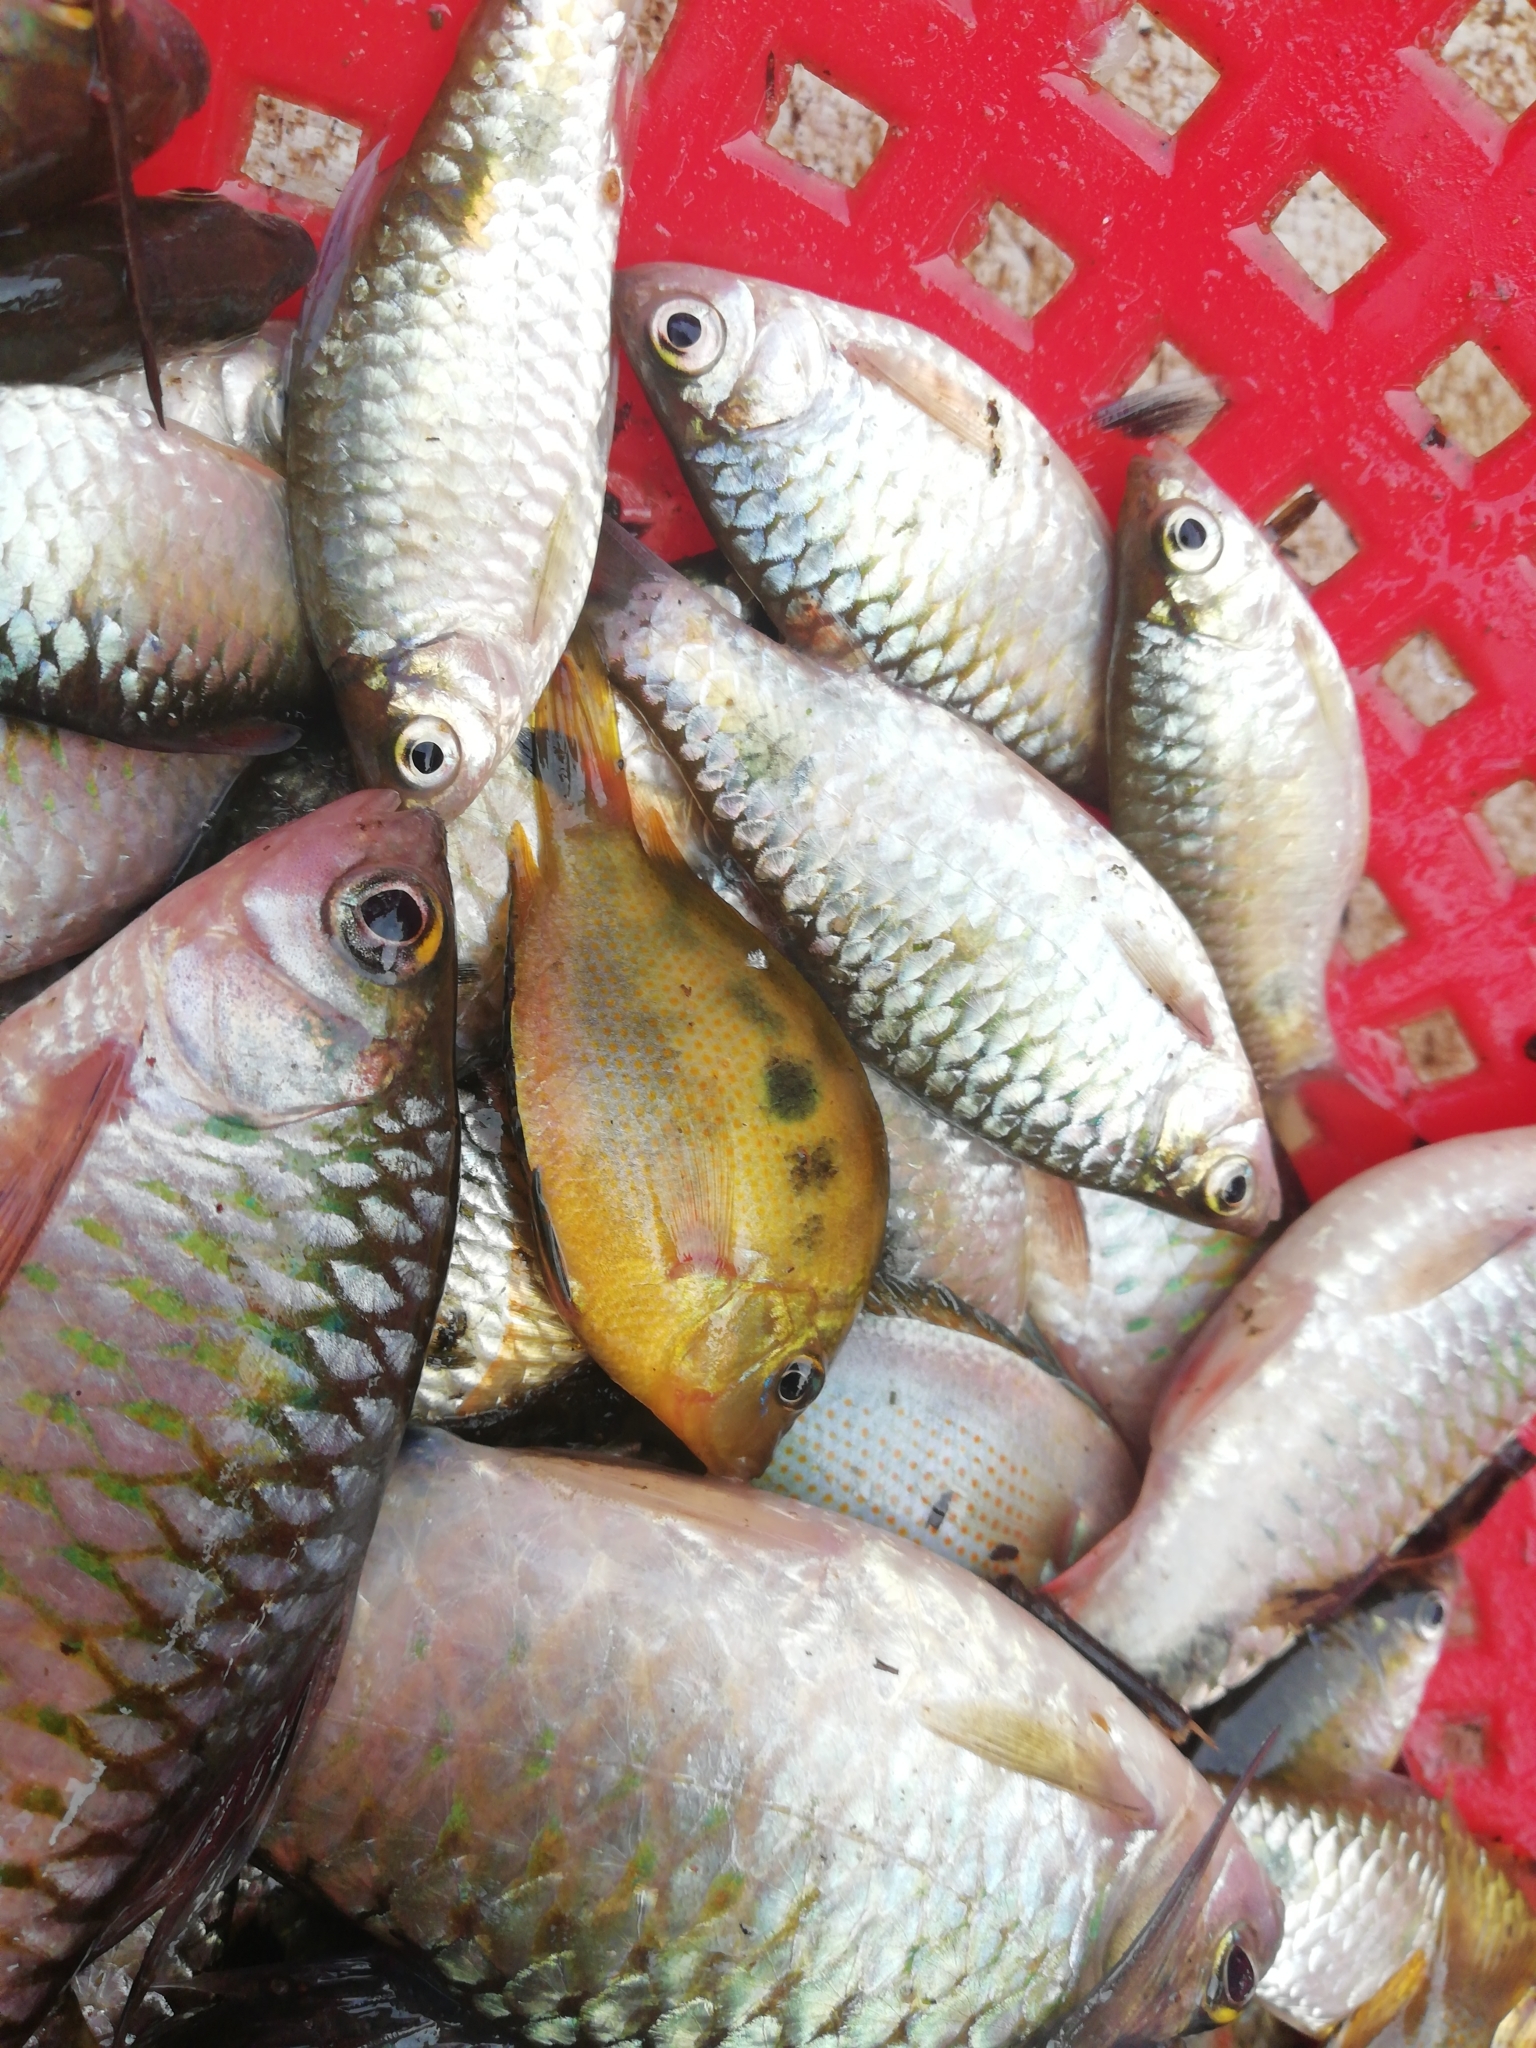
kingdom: Animalia
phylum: Chordata
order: Perciformes
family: Cichlidae
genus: Etroplus
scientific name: Etroplus maculatus
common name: Orange chromide
